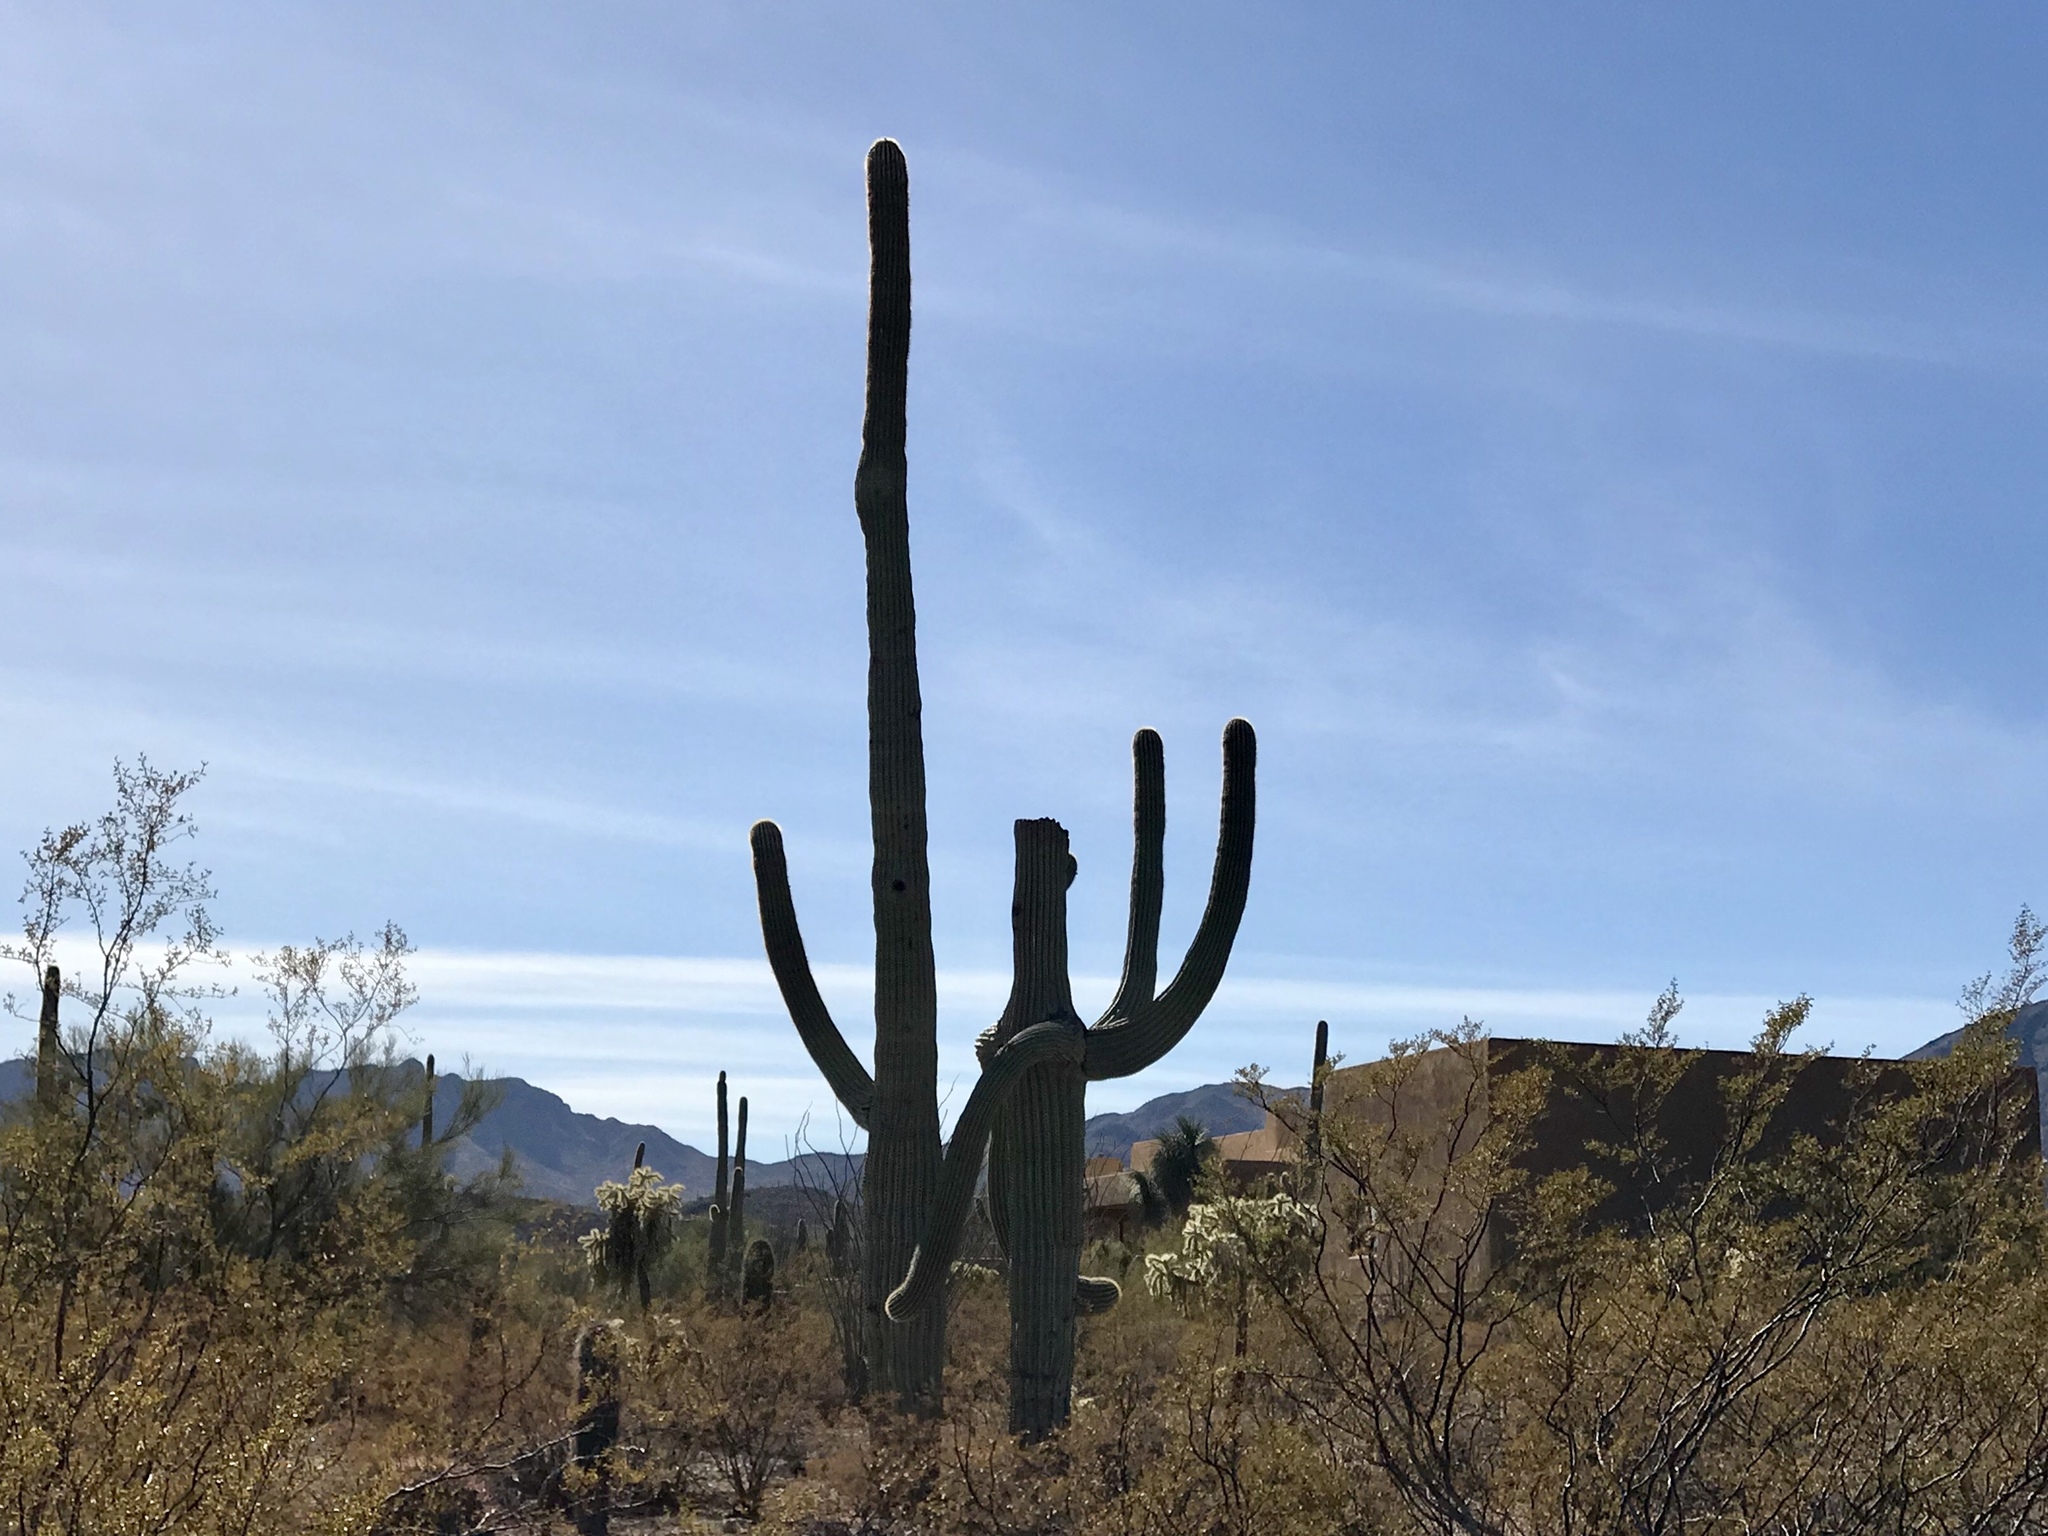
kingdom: Plantae
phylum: Tracheophyta
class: Magnoliopsida
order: Caryophyllales
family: Cactaceae
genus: Carnegiea
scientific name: Carnegiea gigantea
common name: Saguaro
